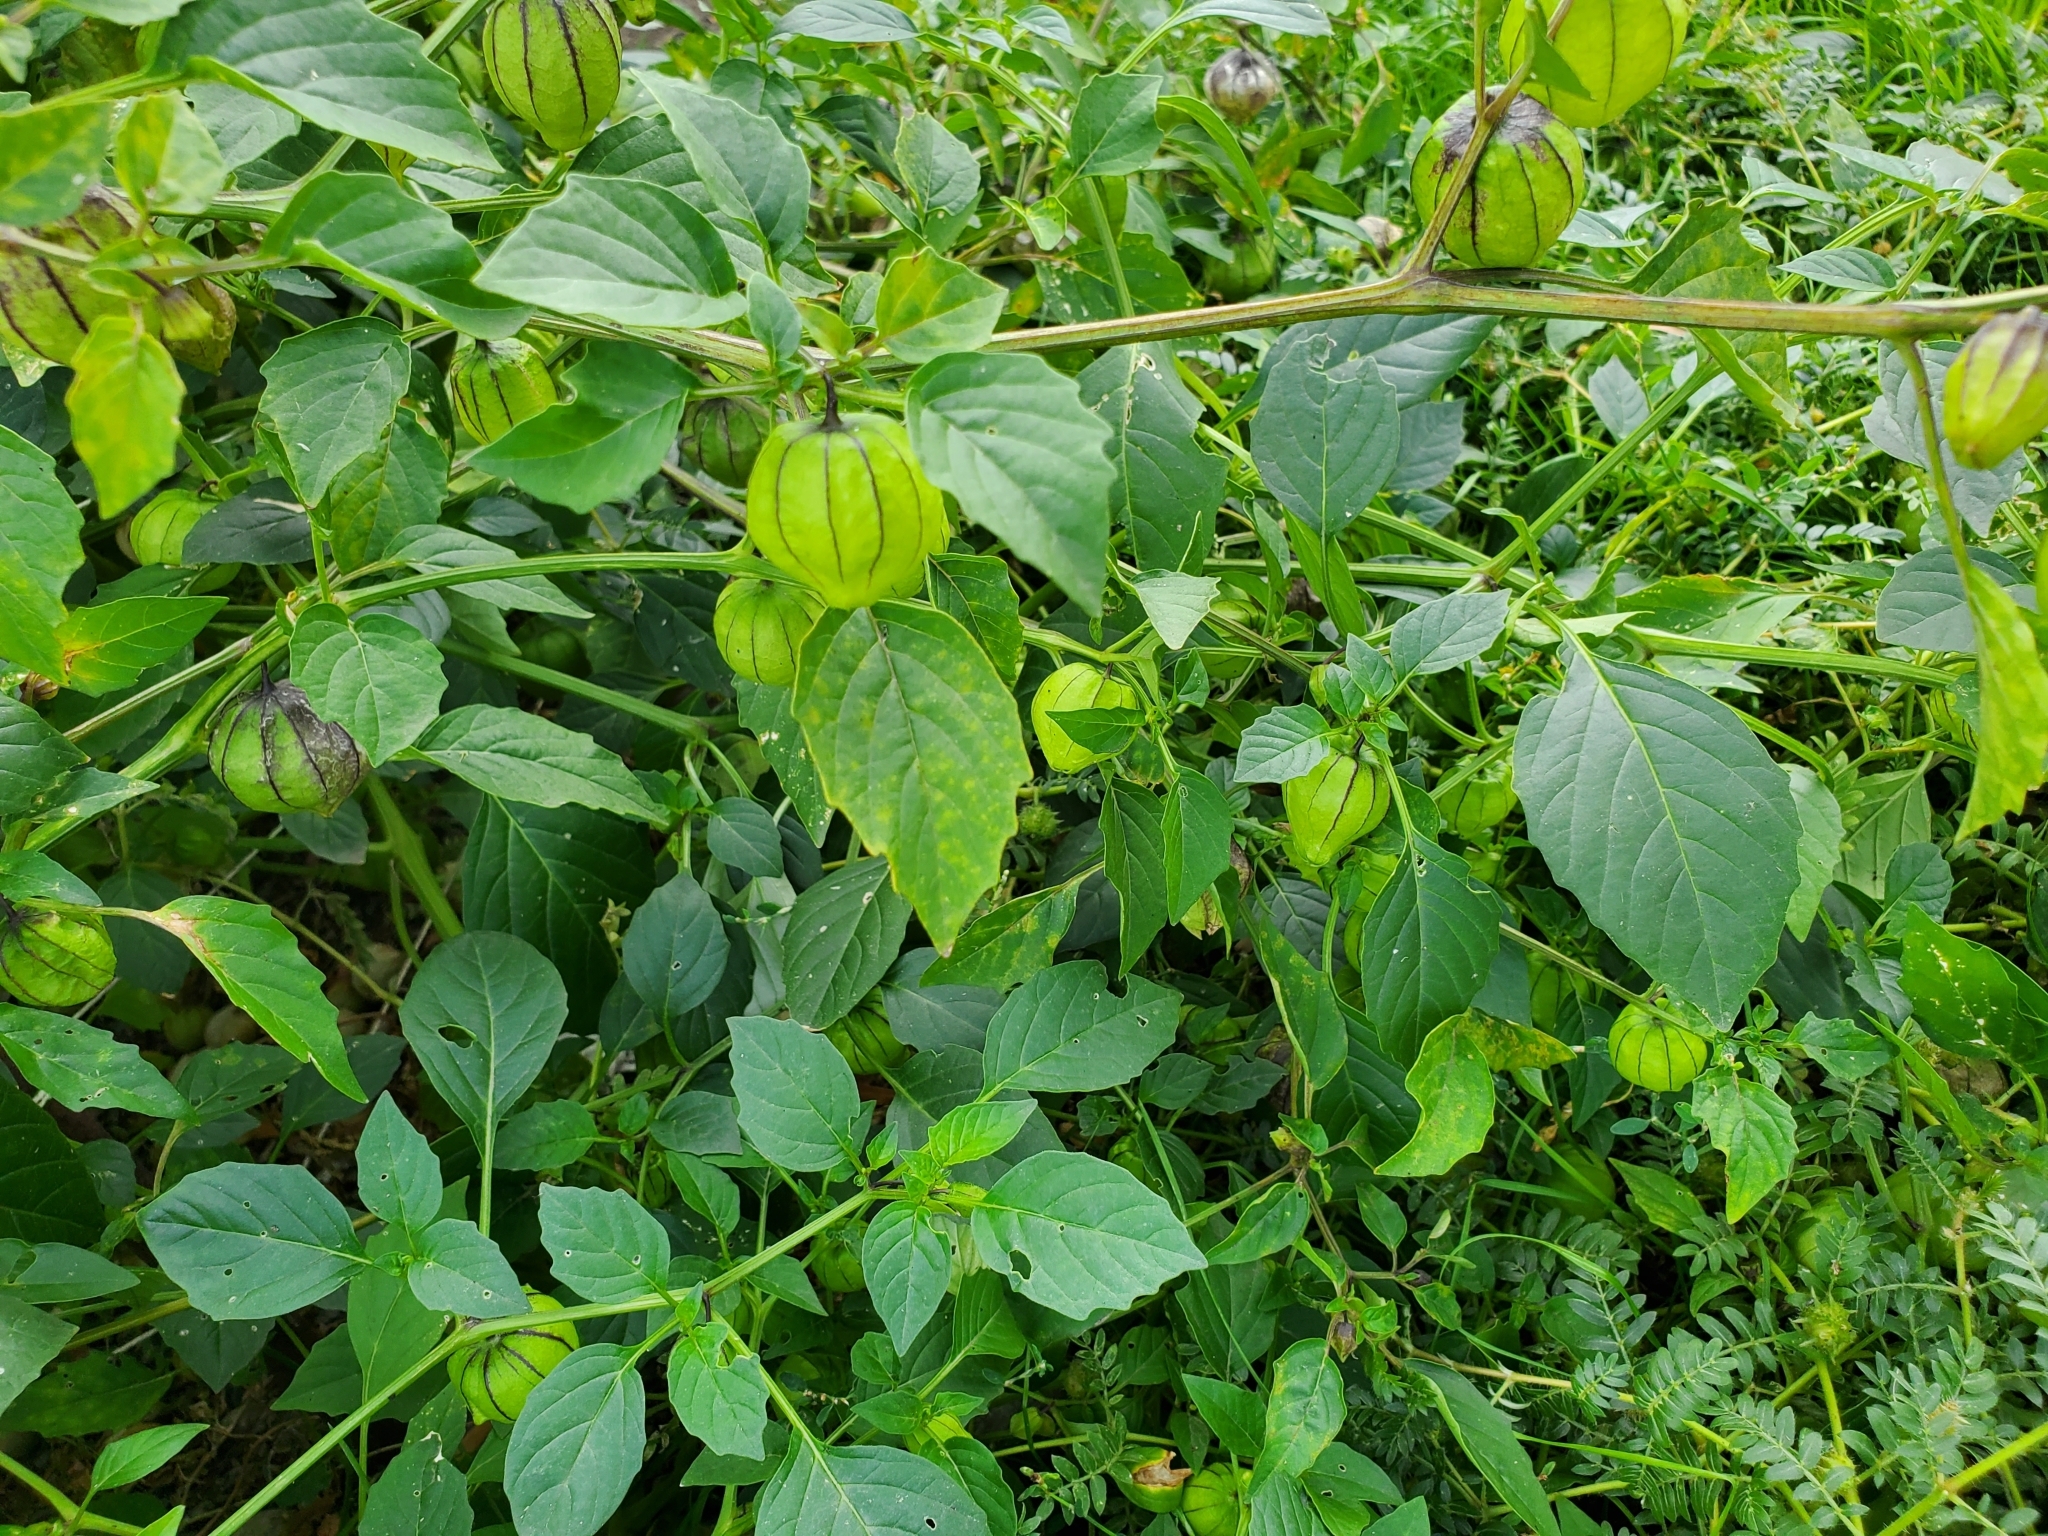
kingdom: Plantae
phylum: Tracheophyta
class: Magnoliopsida
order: Solanales
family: Solanaceae
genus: Physalis
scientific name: Physalis philadelphica
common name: Husk-tomato
